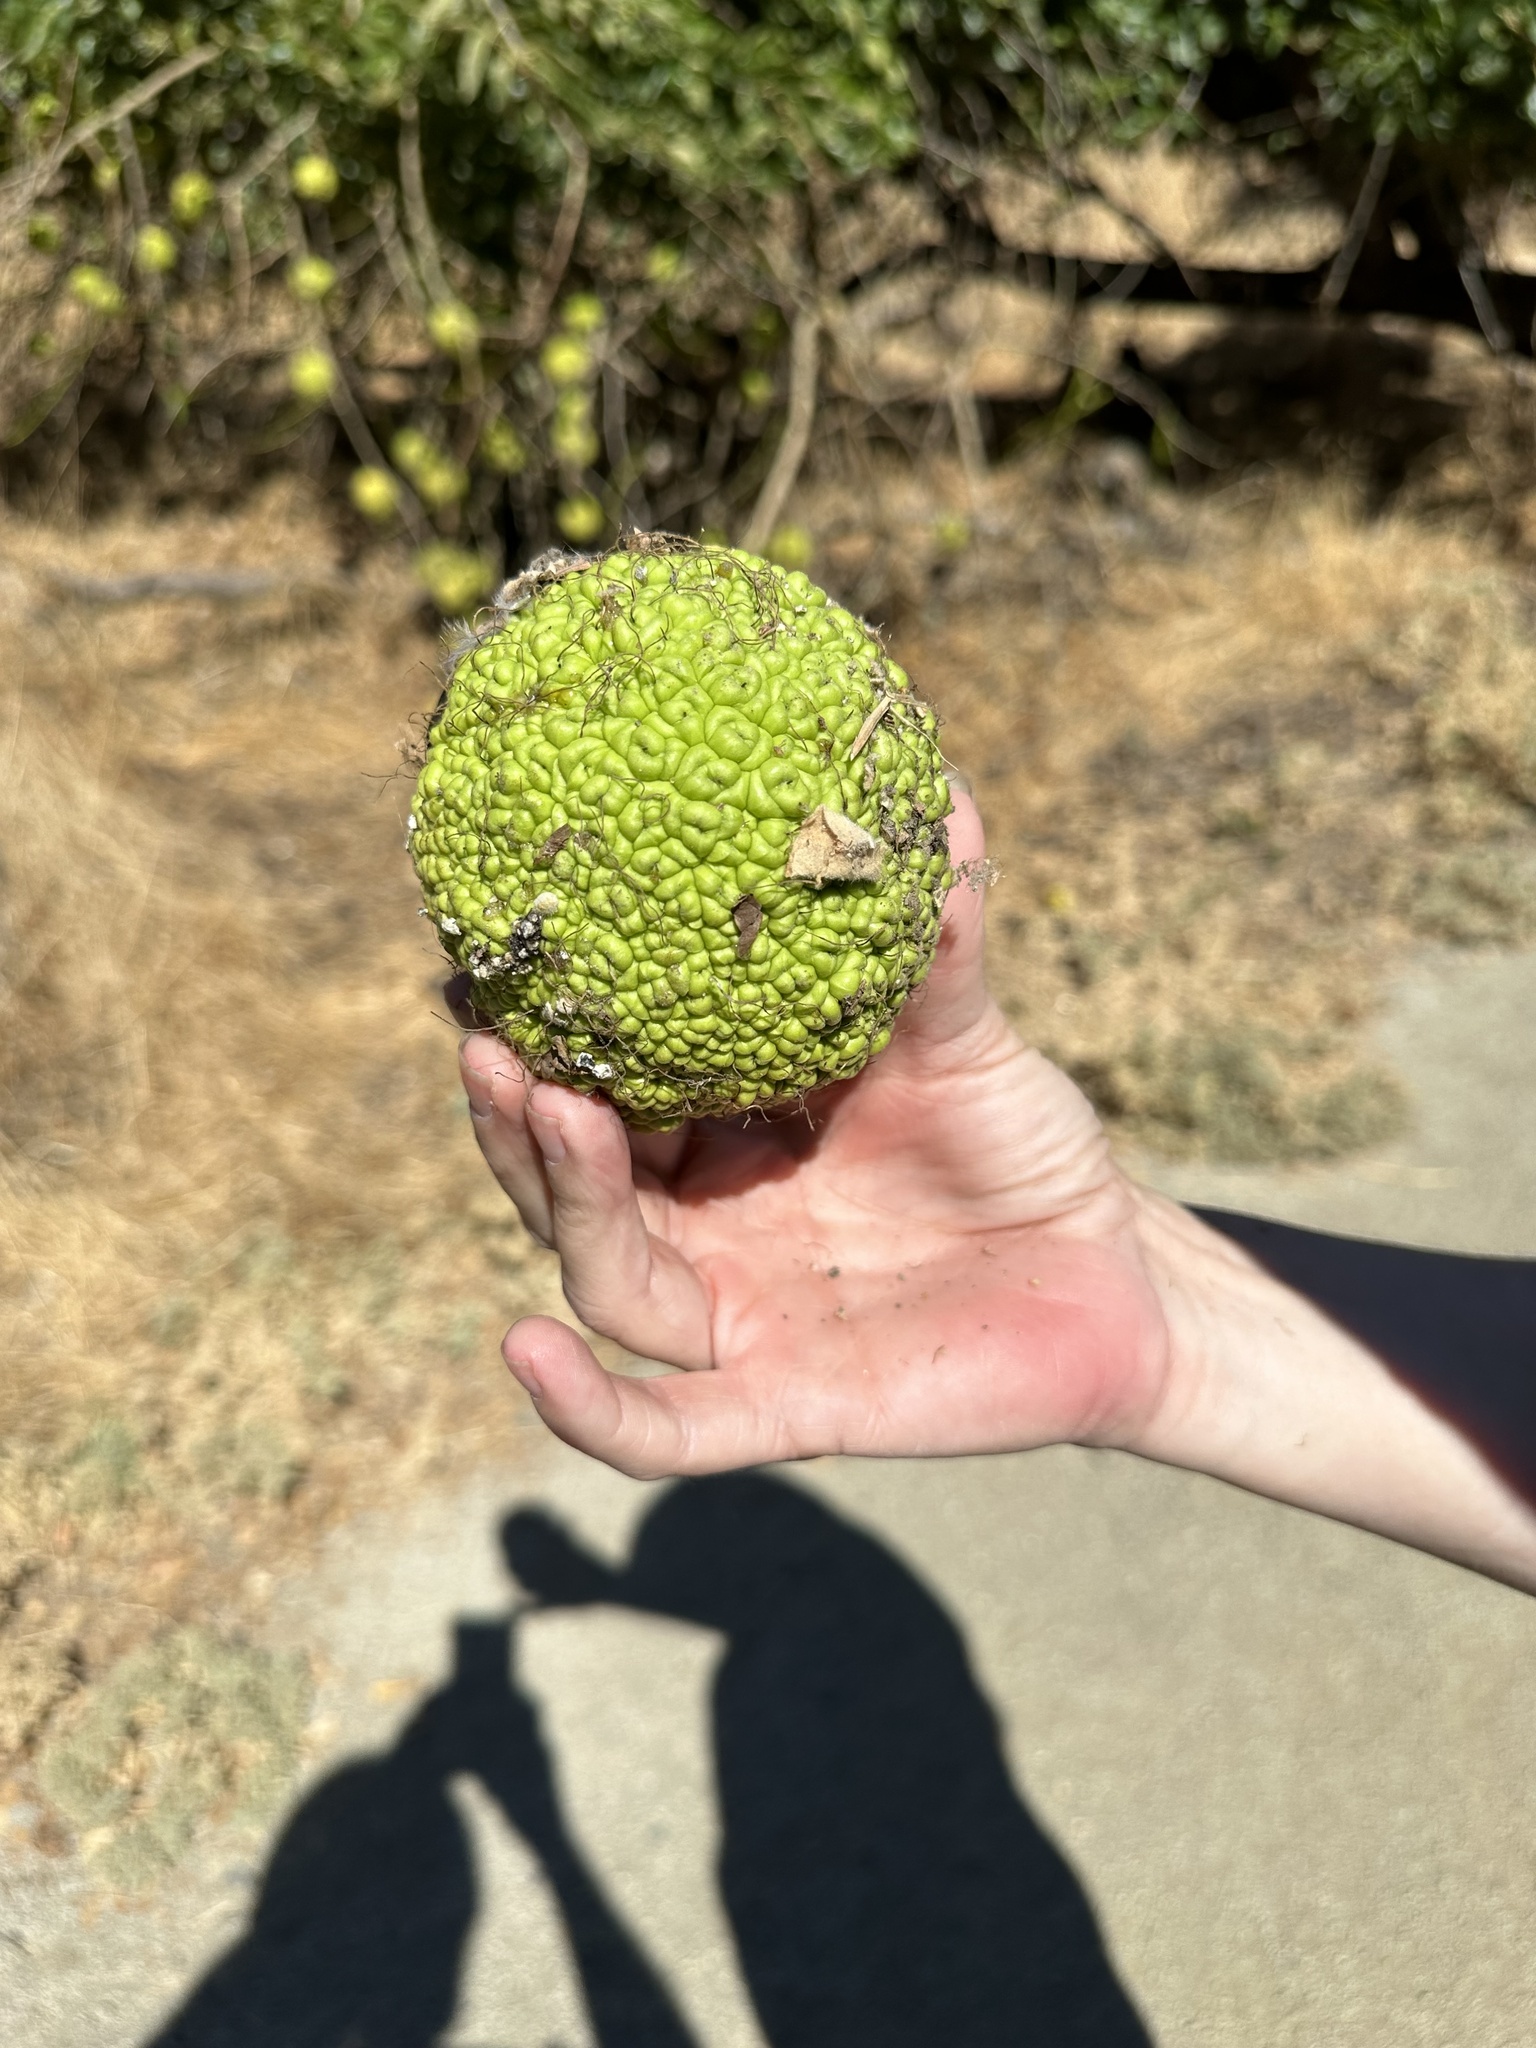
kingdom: Plantae
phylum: Tracheophyta
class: Magnoliopsida
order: Rosales
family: Moraceae
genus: Maclura
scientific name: Maclura pomifera
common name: Osage-orange
